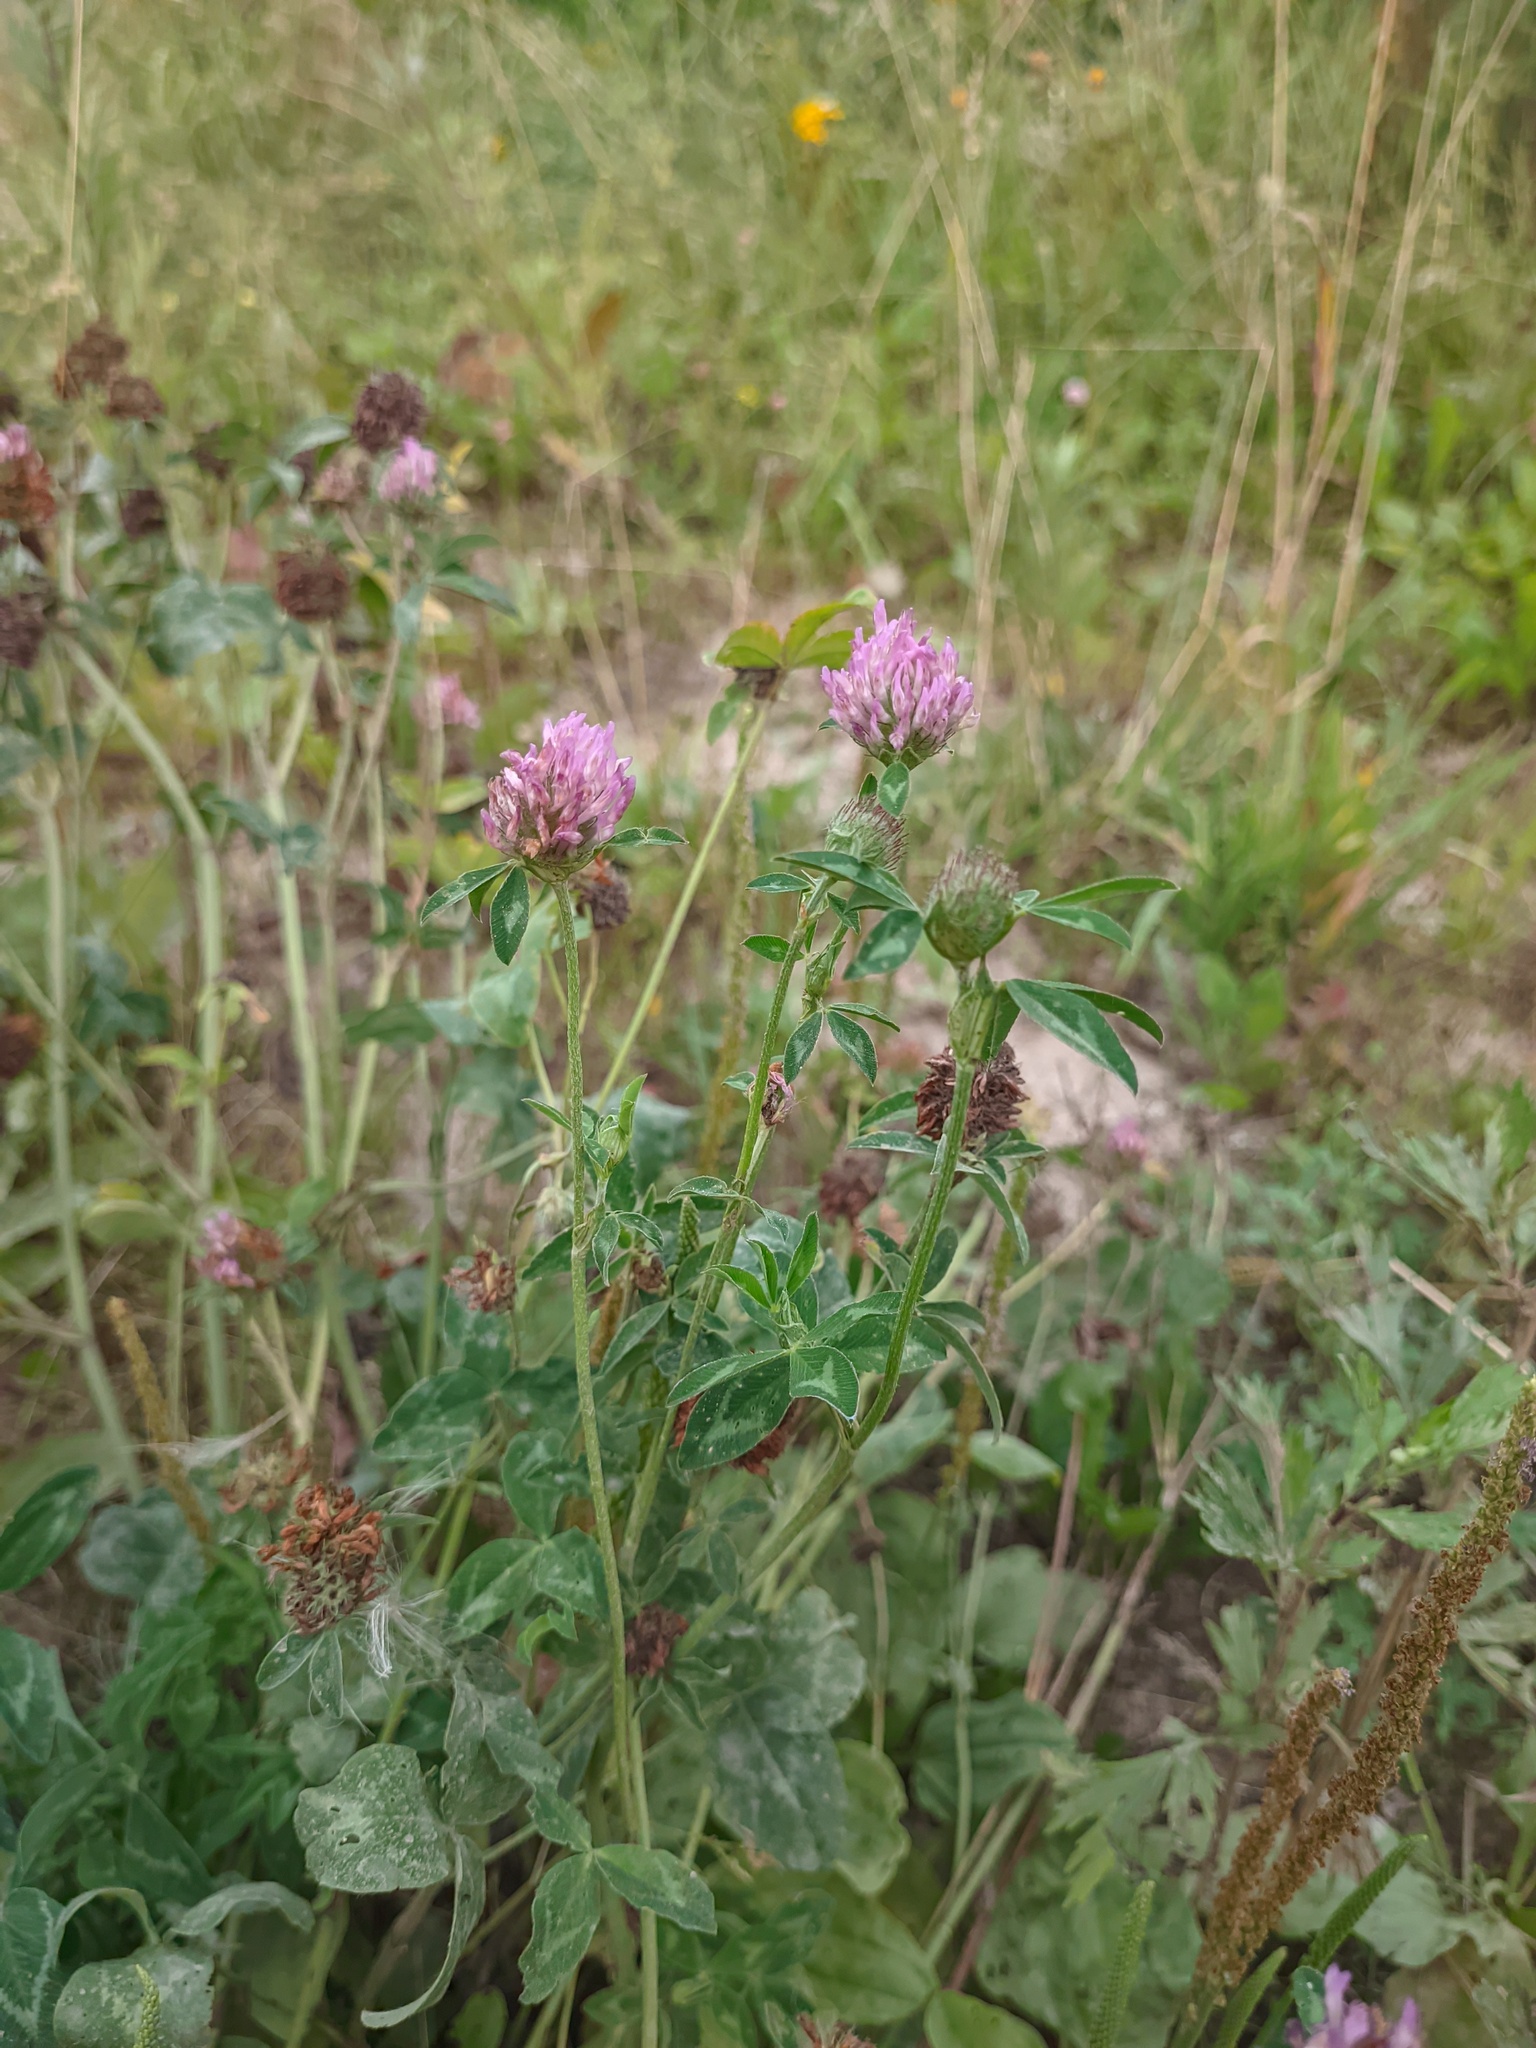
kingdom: Plantae
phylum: Tracheophyta
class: Magnoliopsida
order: Fabales
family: Fabaceae
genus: Trifolium
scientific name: Trifolium pratense
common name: Red clover
